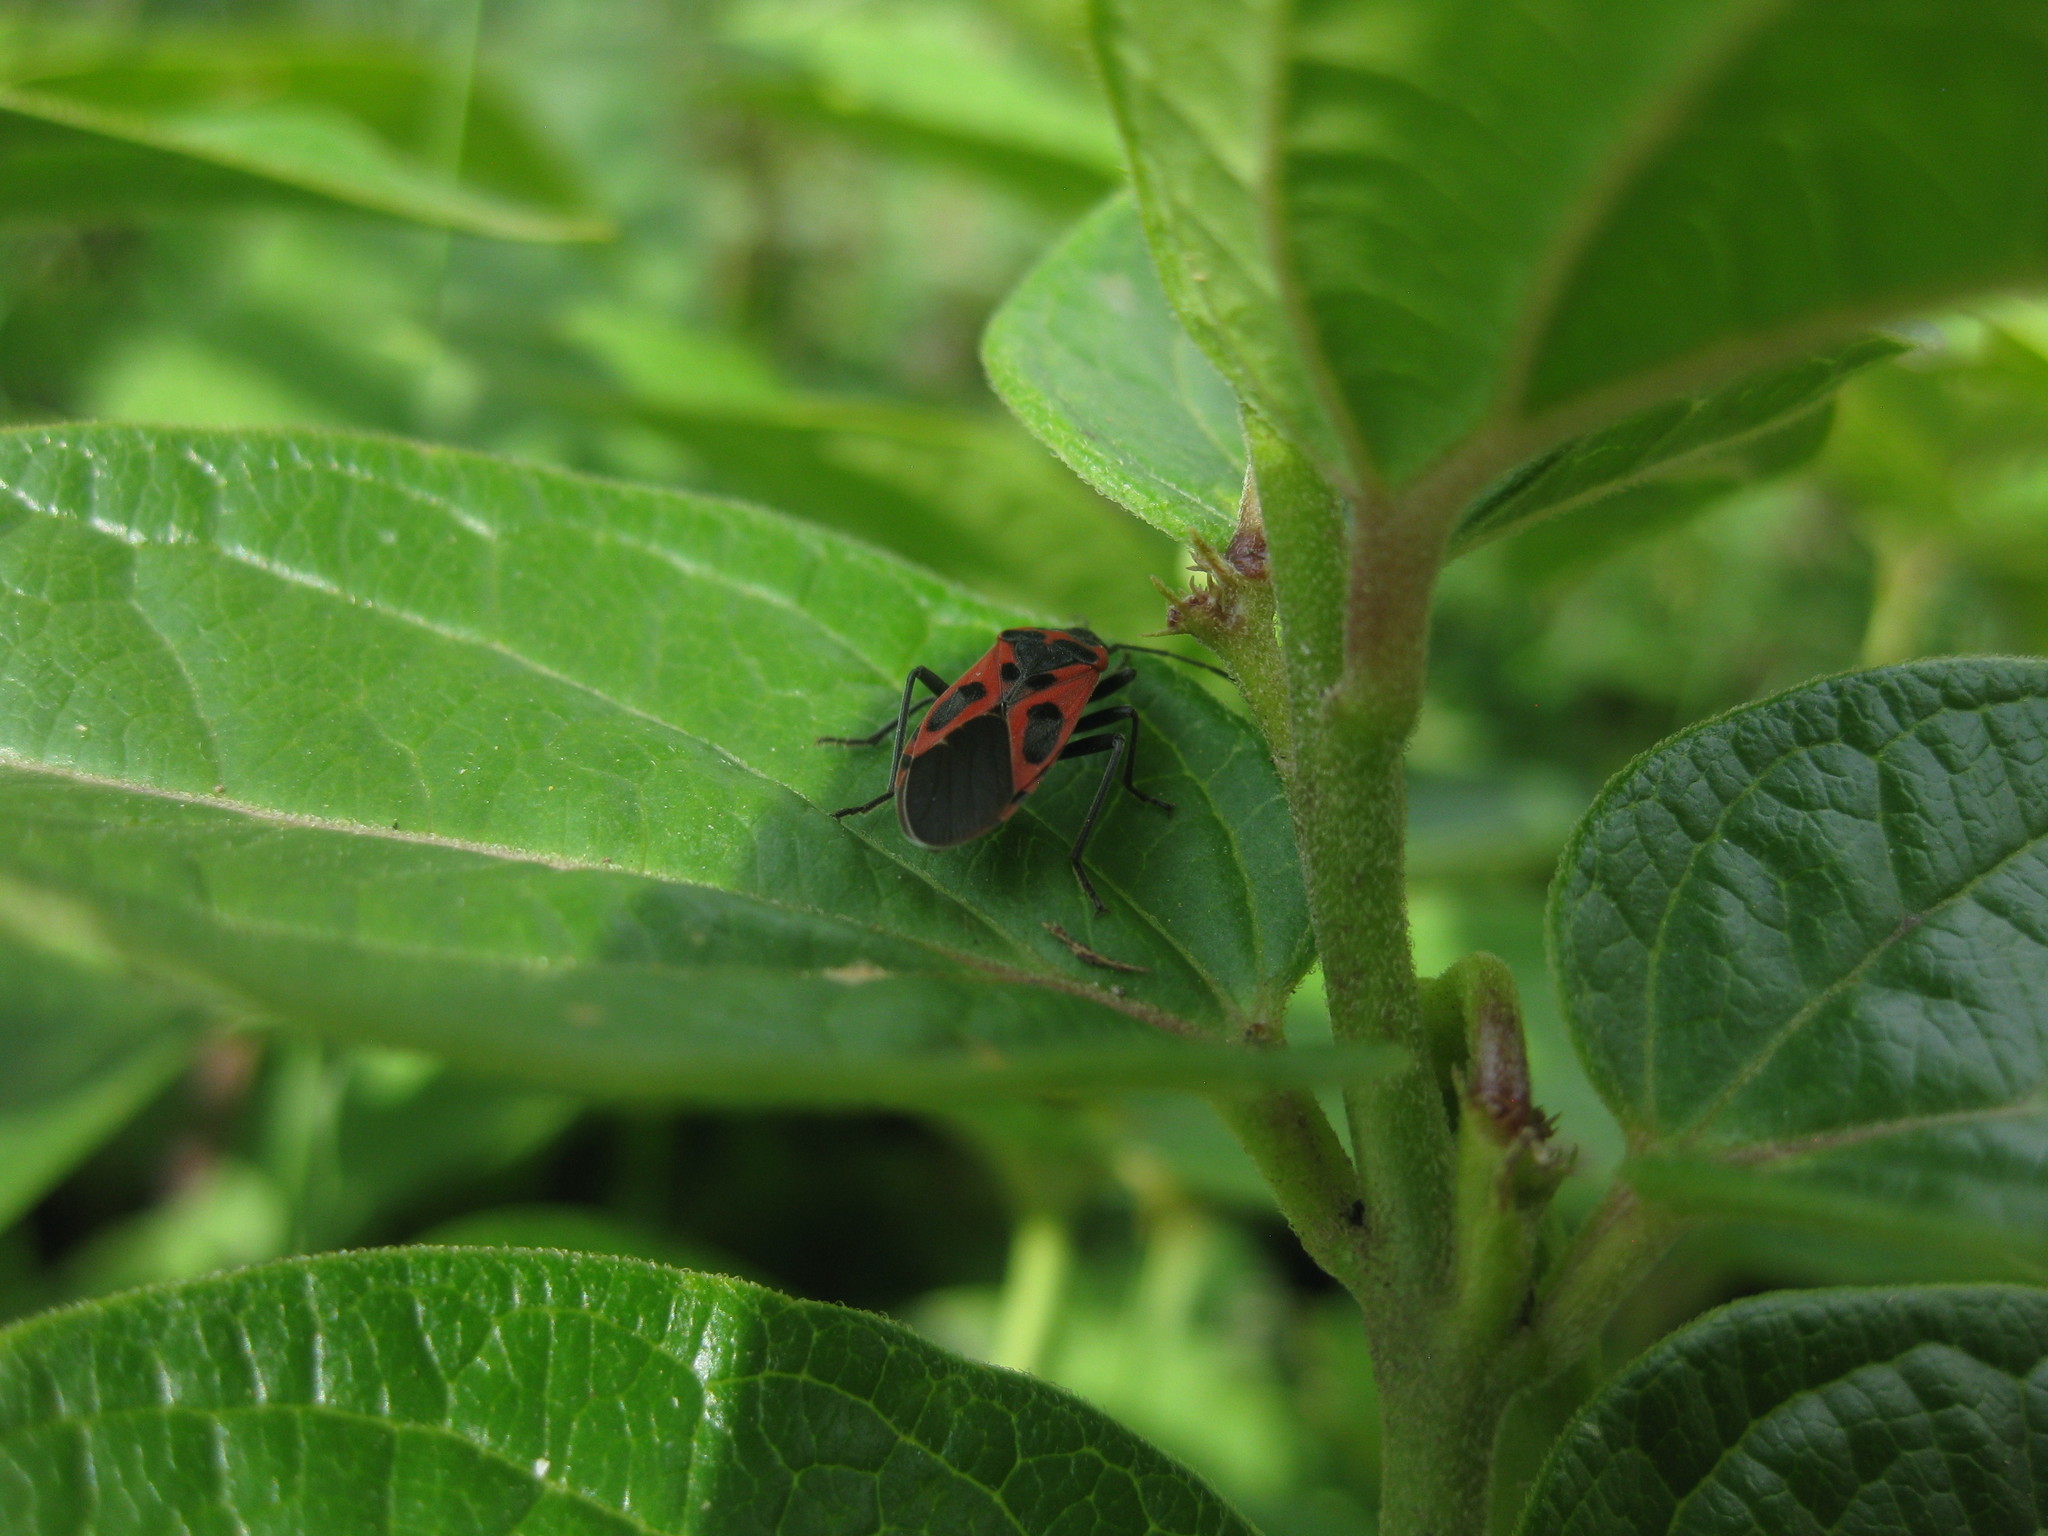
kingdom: Animalia
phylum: Arthropoda
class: Insecta
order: Hemiptera
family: Lygaeidae
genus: Lygaeus
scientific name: Lygaeus vicarius
